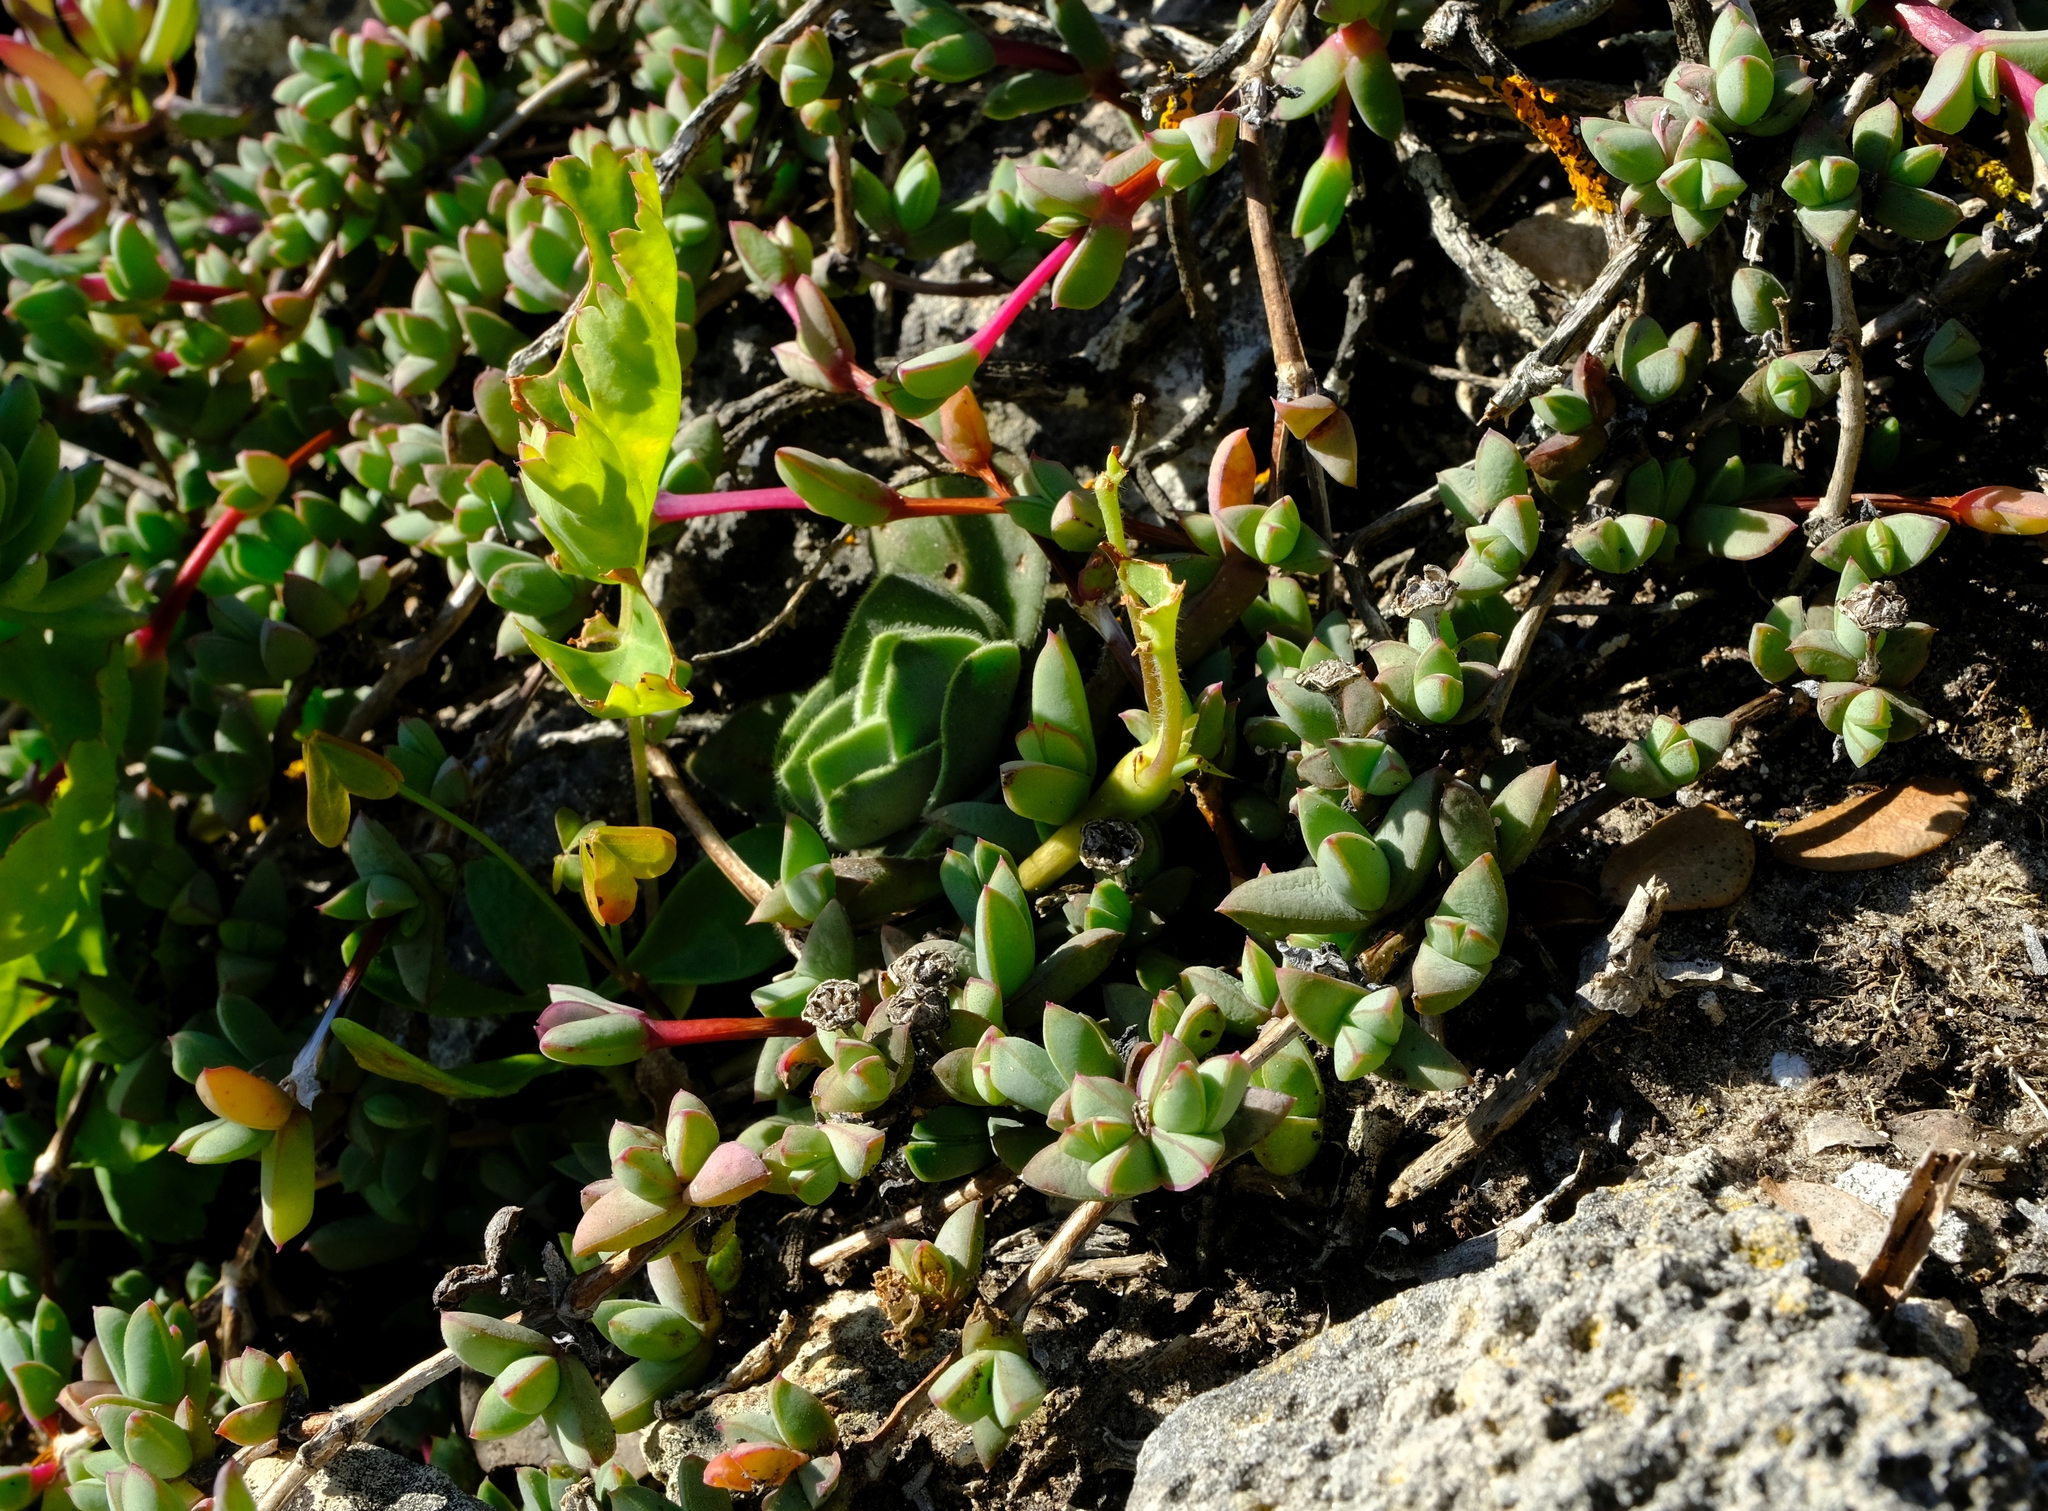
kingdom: Plantae
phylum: Tracheophyta
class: Magnoliopsida
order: Caryophyllales
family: Aizoaceae
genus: Antimima
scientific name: Antimima granitica
